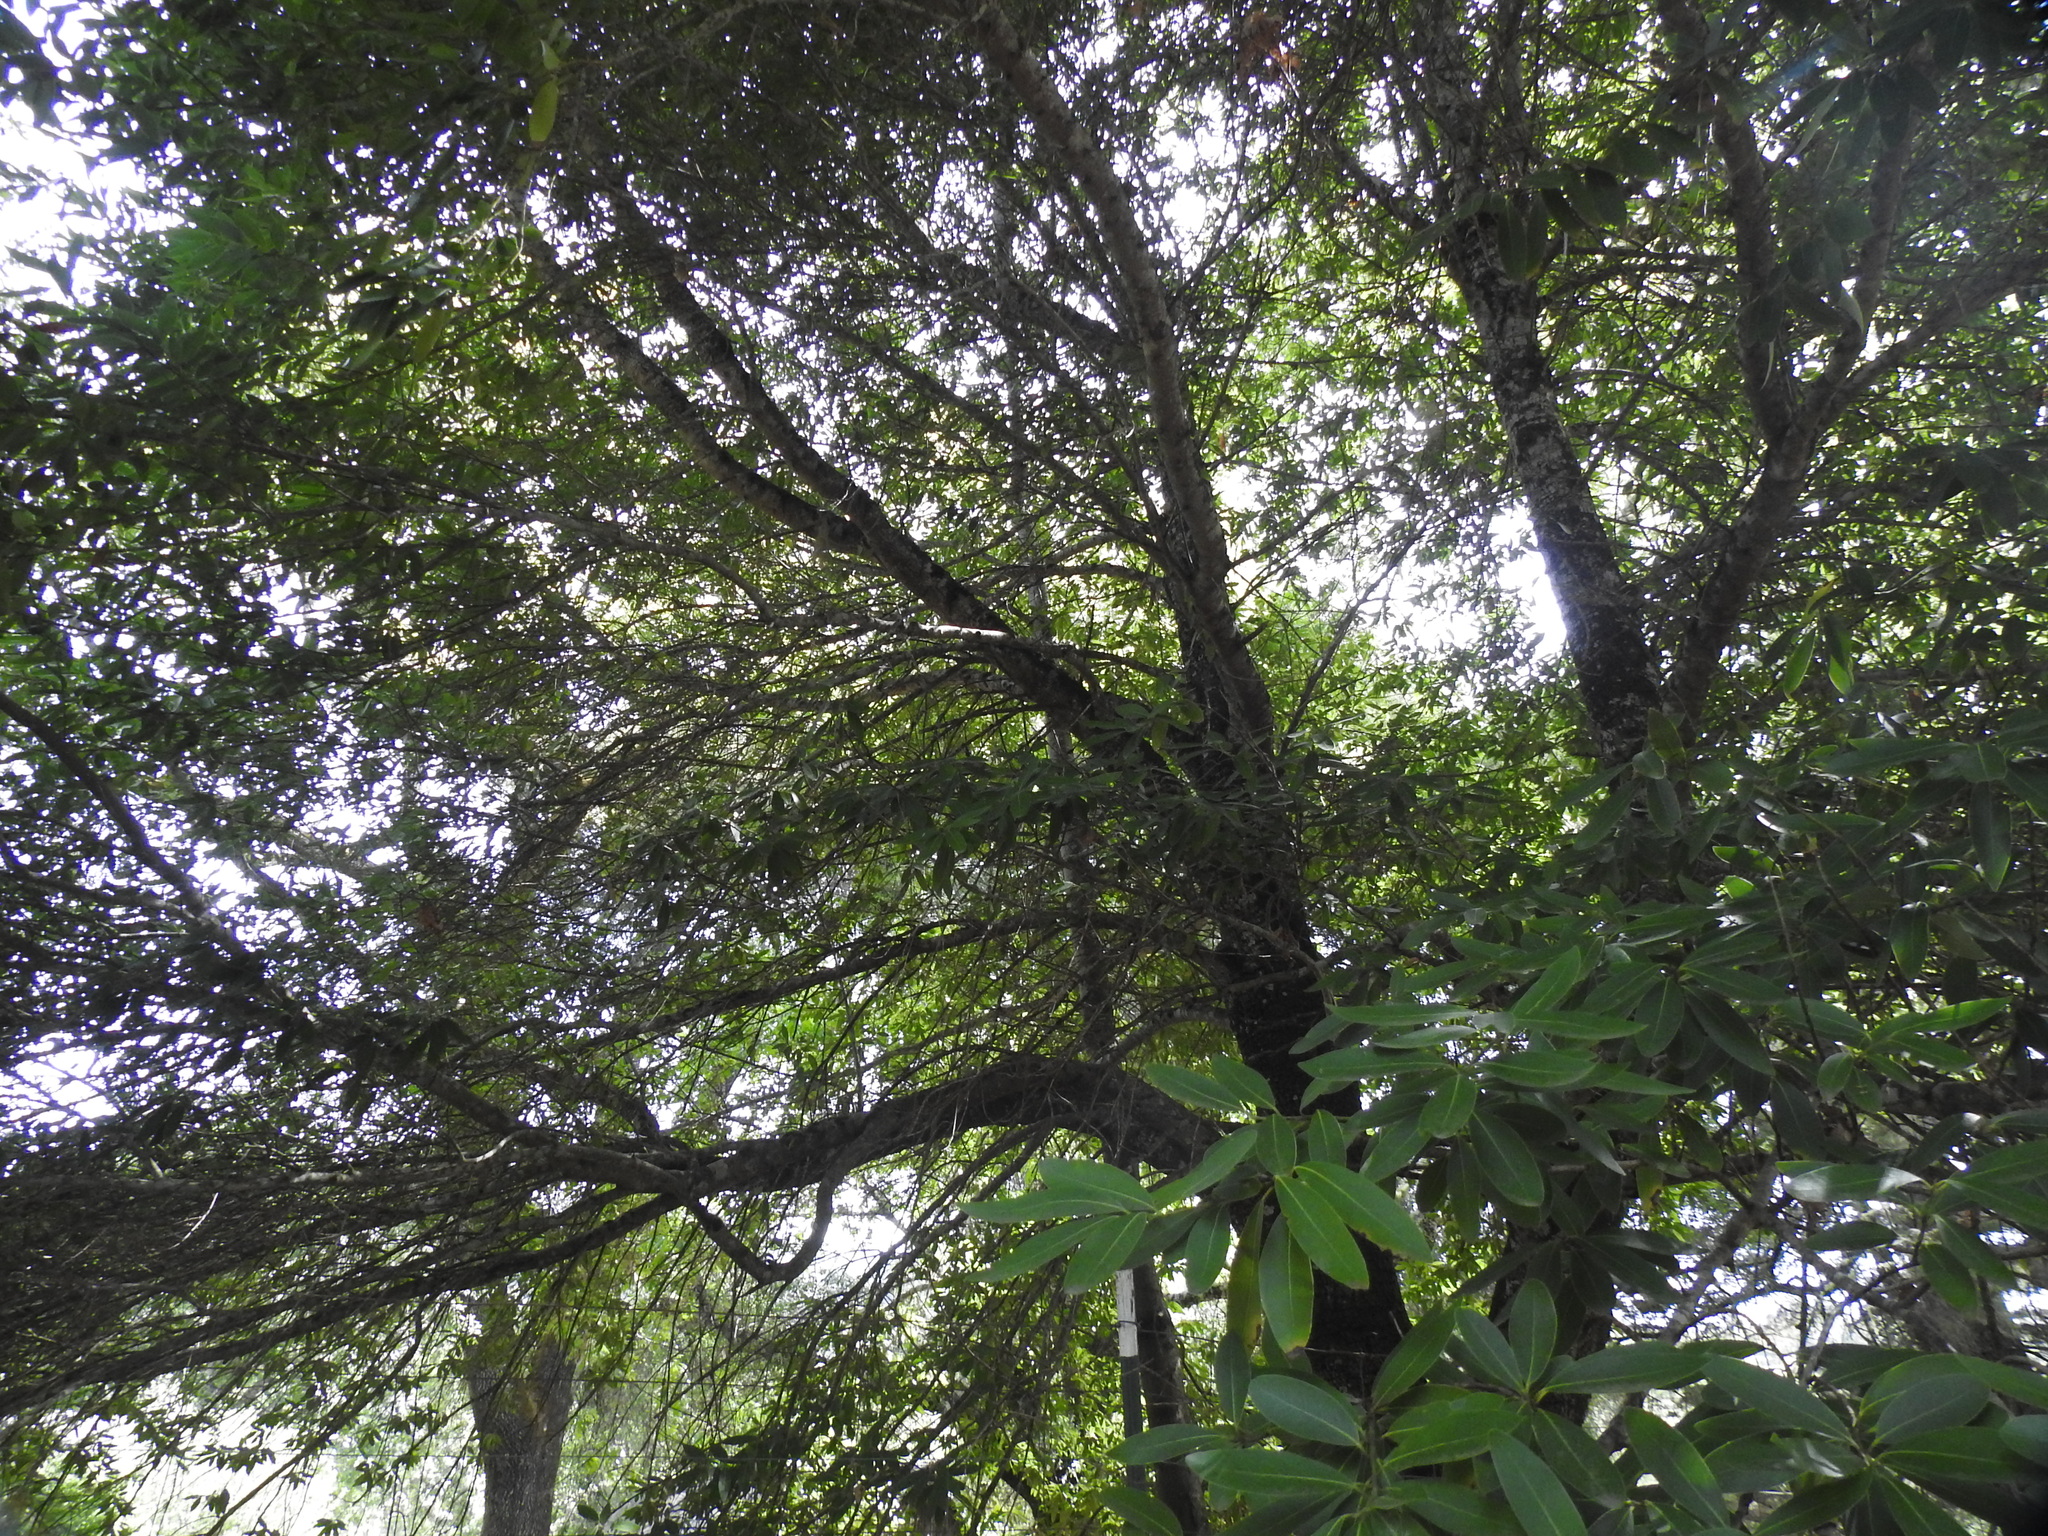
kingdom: Plantae
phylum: Tracheophyta
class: Magnoliopsida
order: Laurales
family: Lauraceae
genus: Umbellularia
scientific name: Umbellularia californica
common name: California bay
